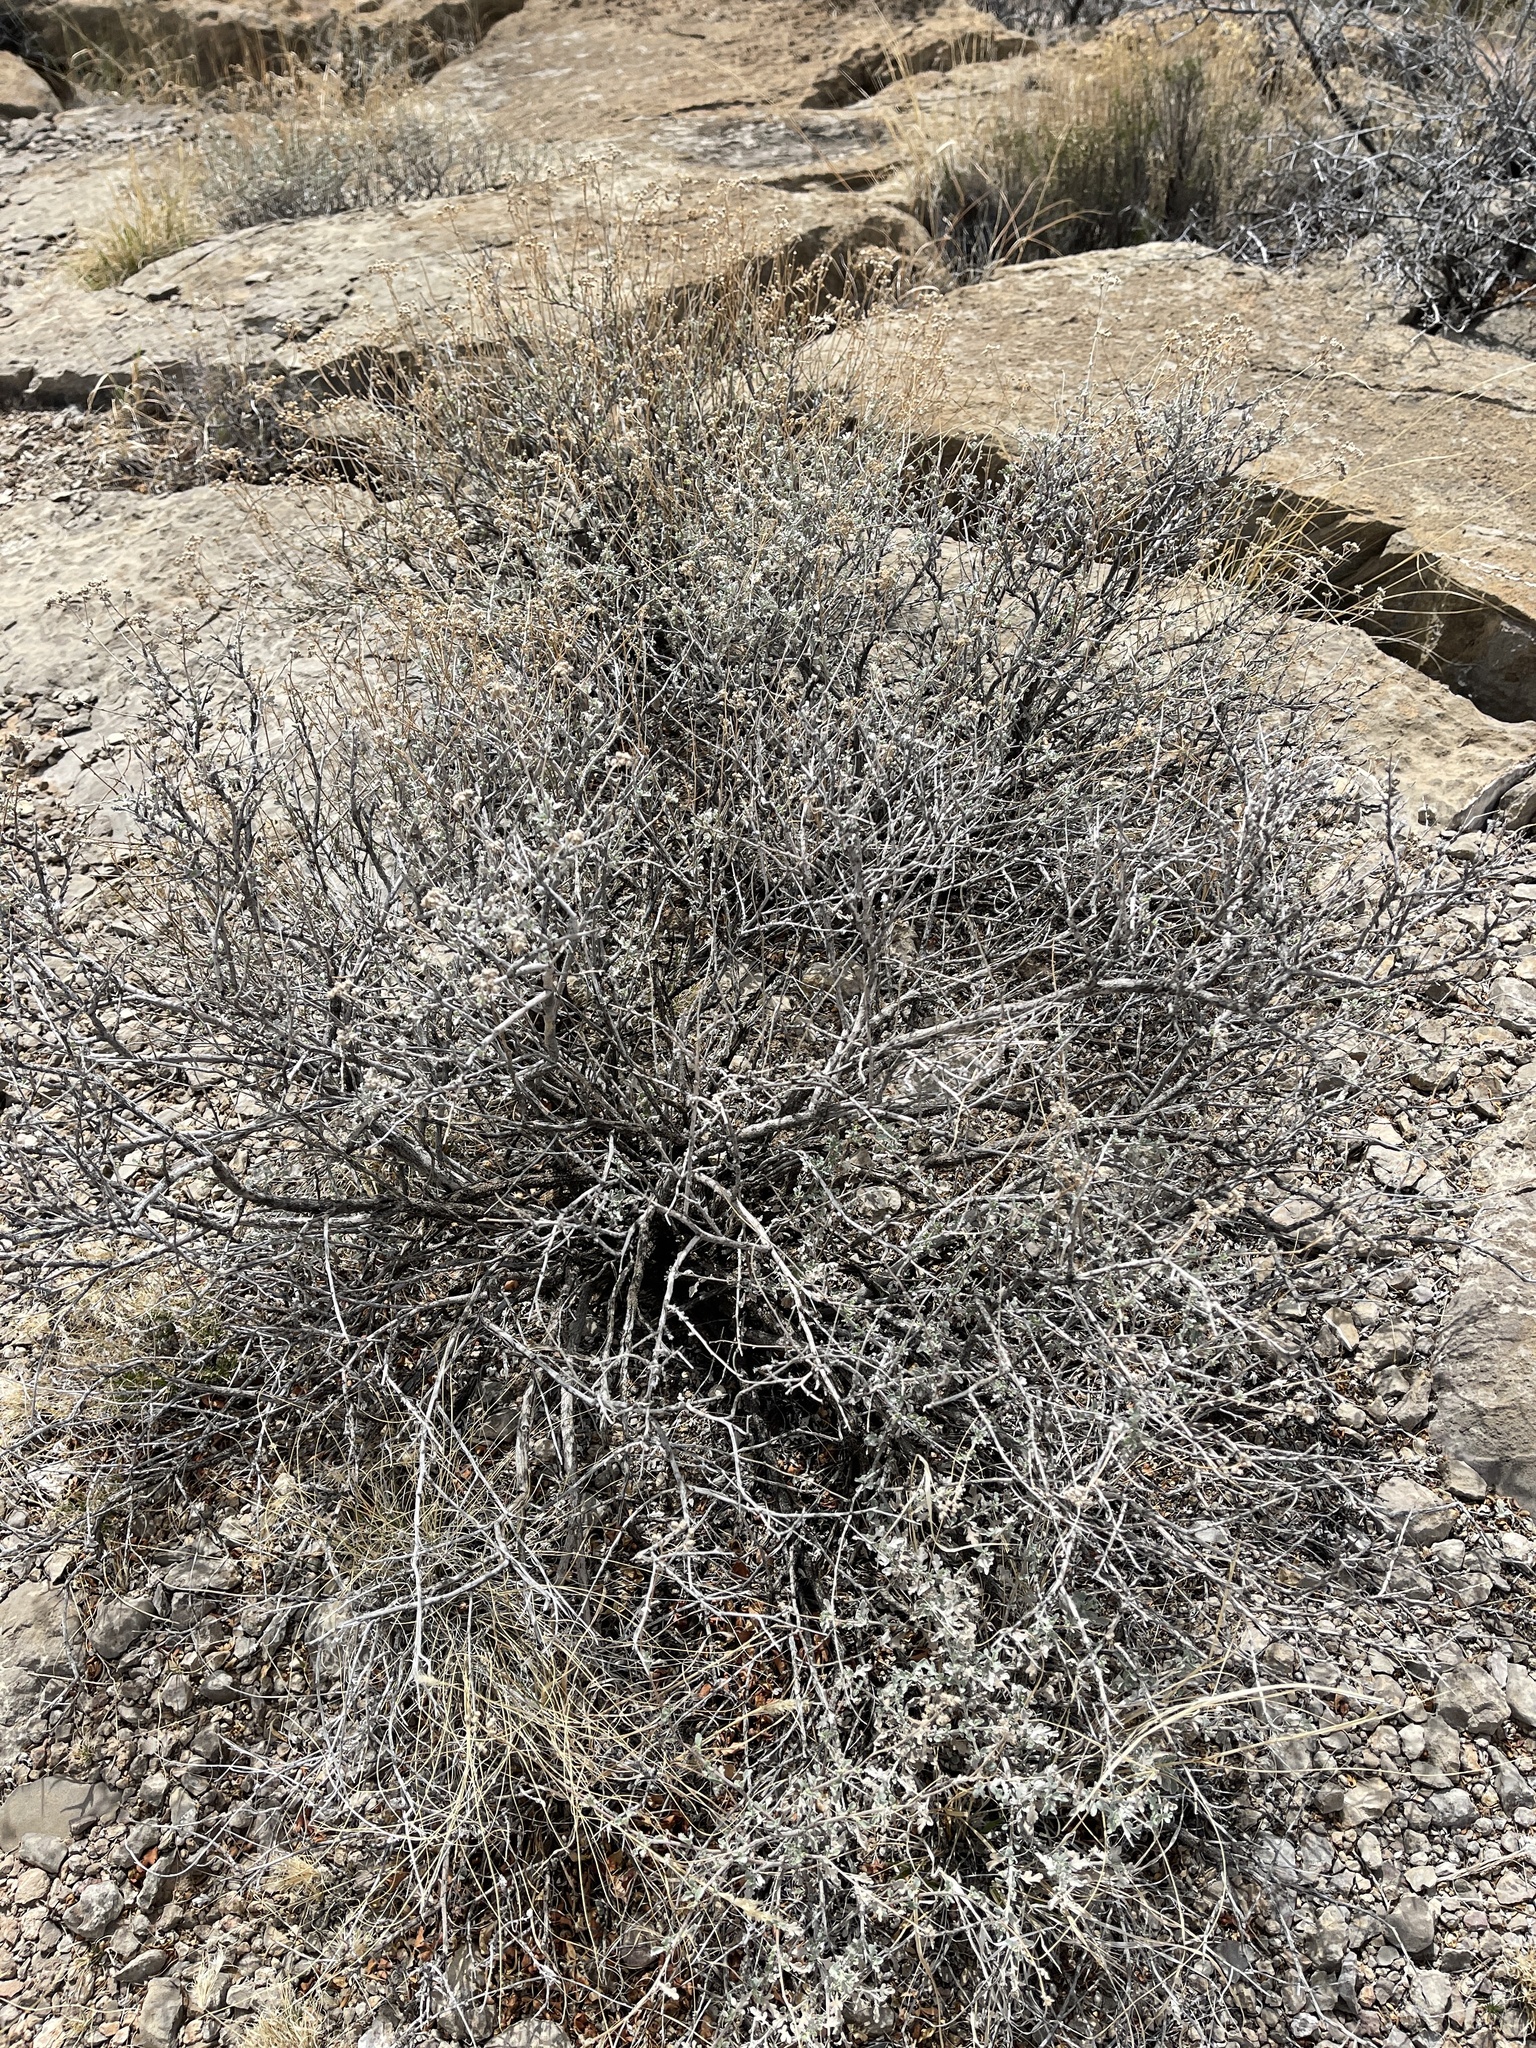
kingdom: Plantae
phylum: Tracheophyta
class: Magnoliopsida
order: Asterales
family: Asteraceae
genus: Parthenium
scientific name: Parthenium incanum
